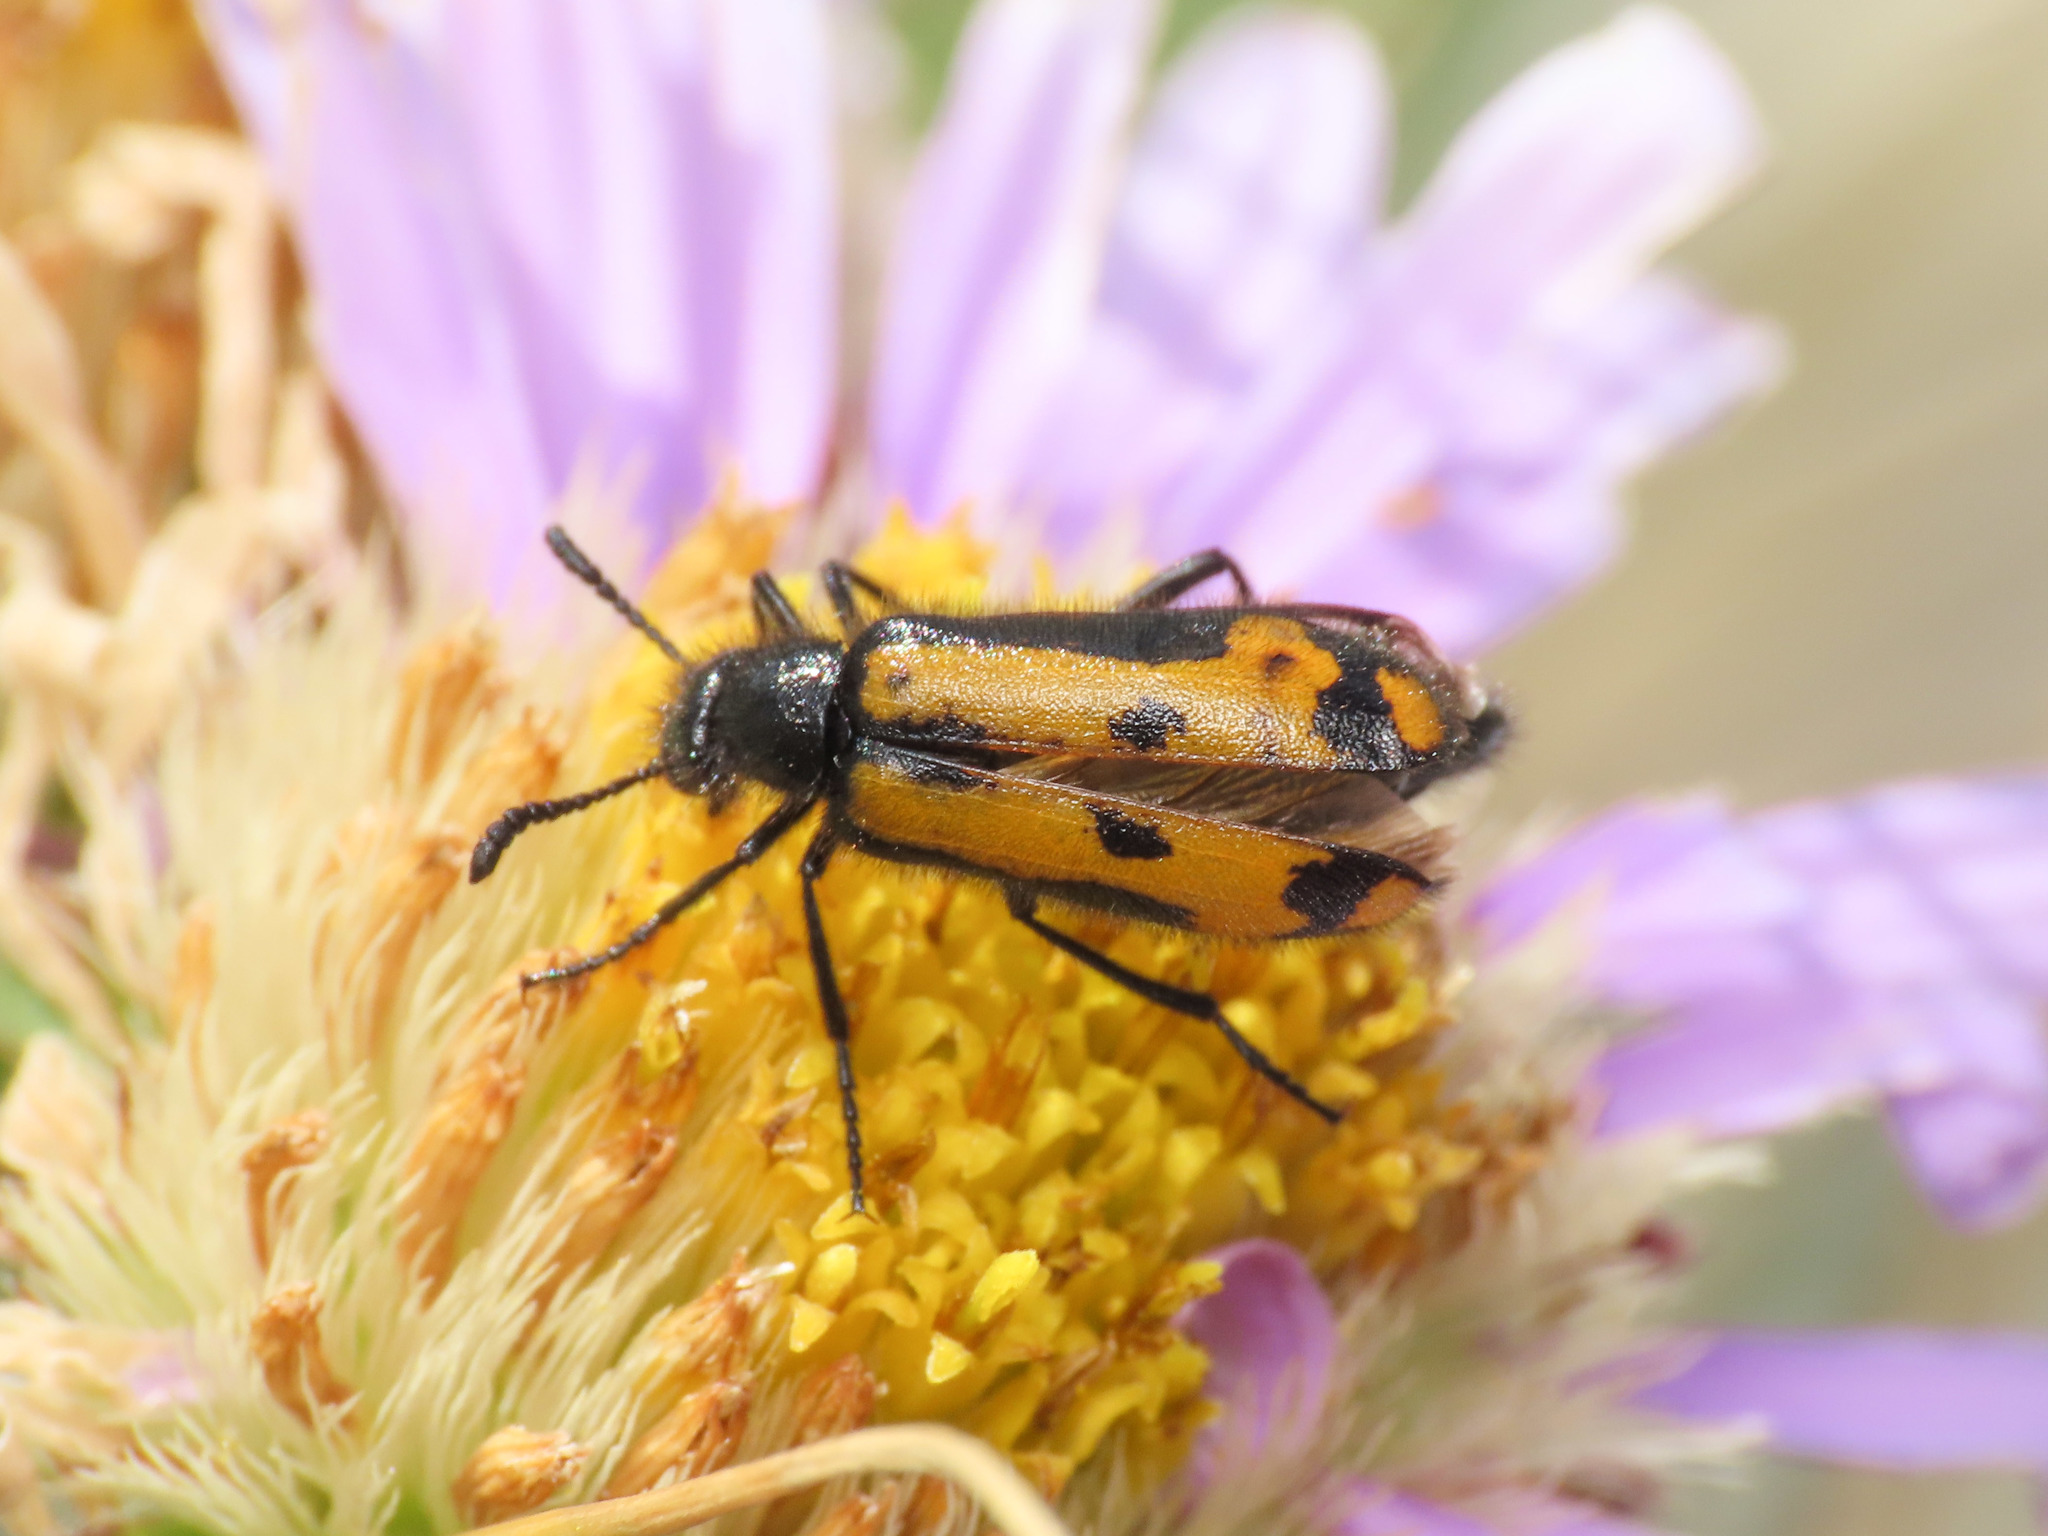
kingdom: Animalia
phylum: Arthropoda
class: Insecta
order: Coleoptera
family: Meloidae
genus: Mylabris
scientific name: Mylabris flexuosa
